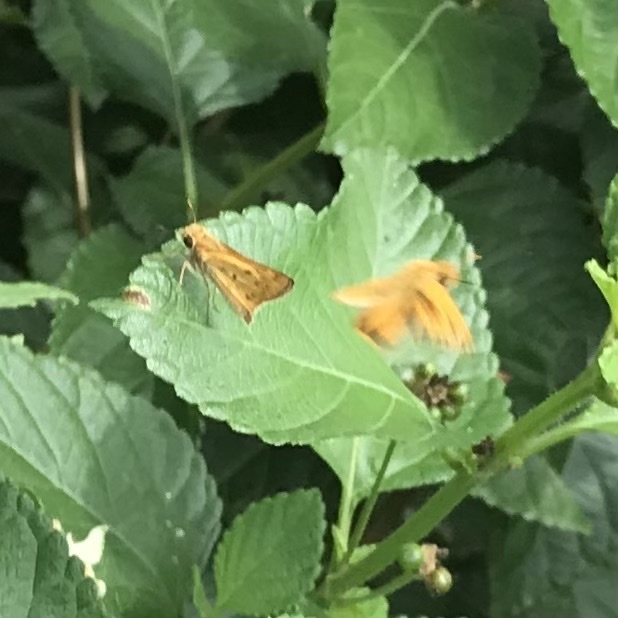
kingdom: Animalia
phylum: Arthropoda
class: Insecta
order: Lepidoptera
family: Hesperiidae
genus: Hylephila
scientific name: Hylephila phyleus
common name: Fiery skipper
